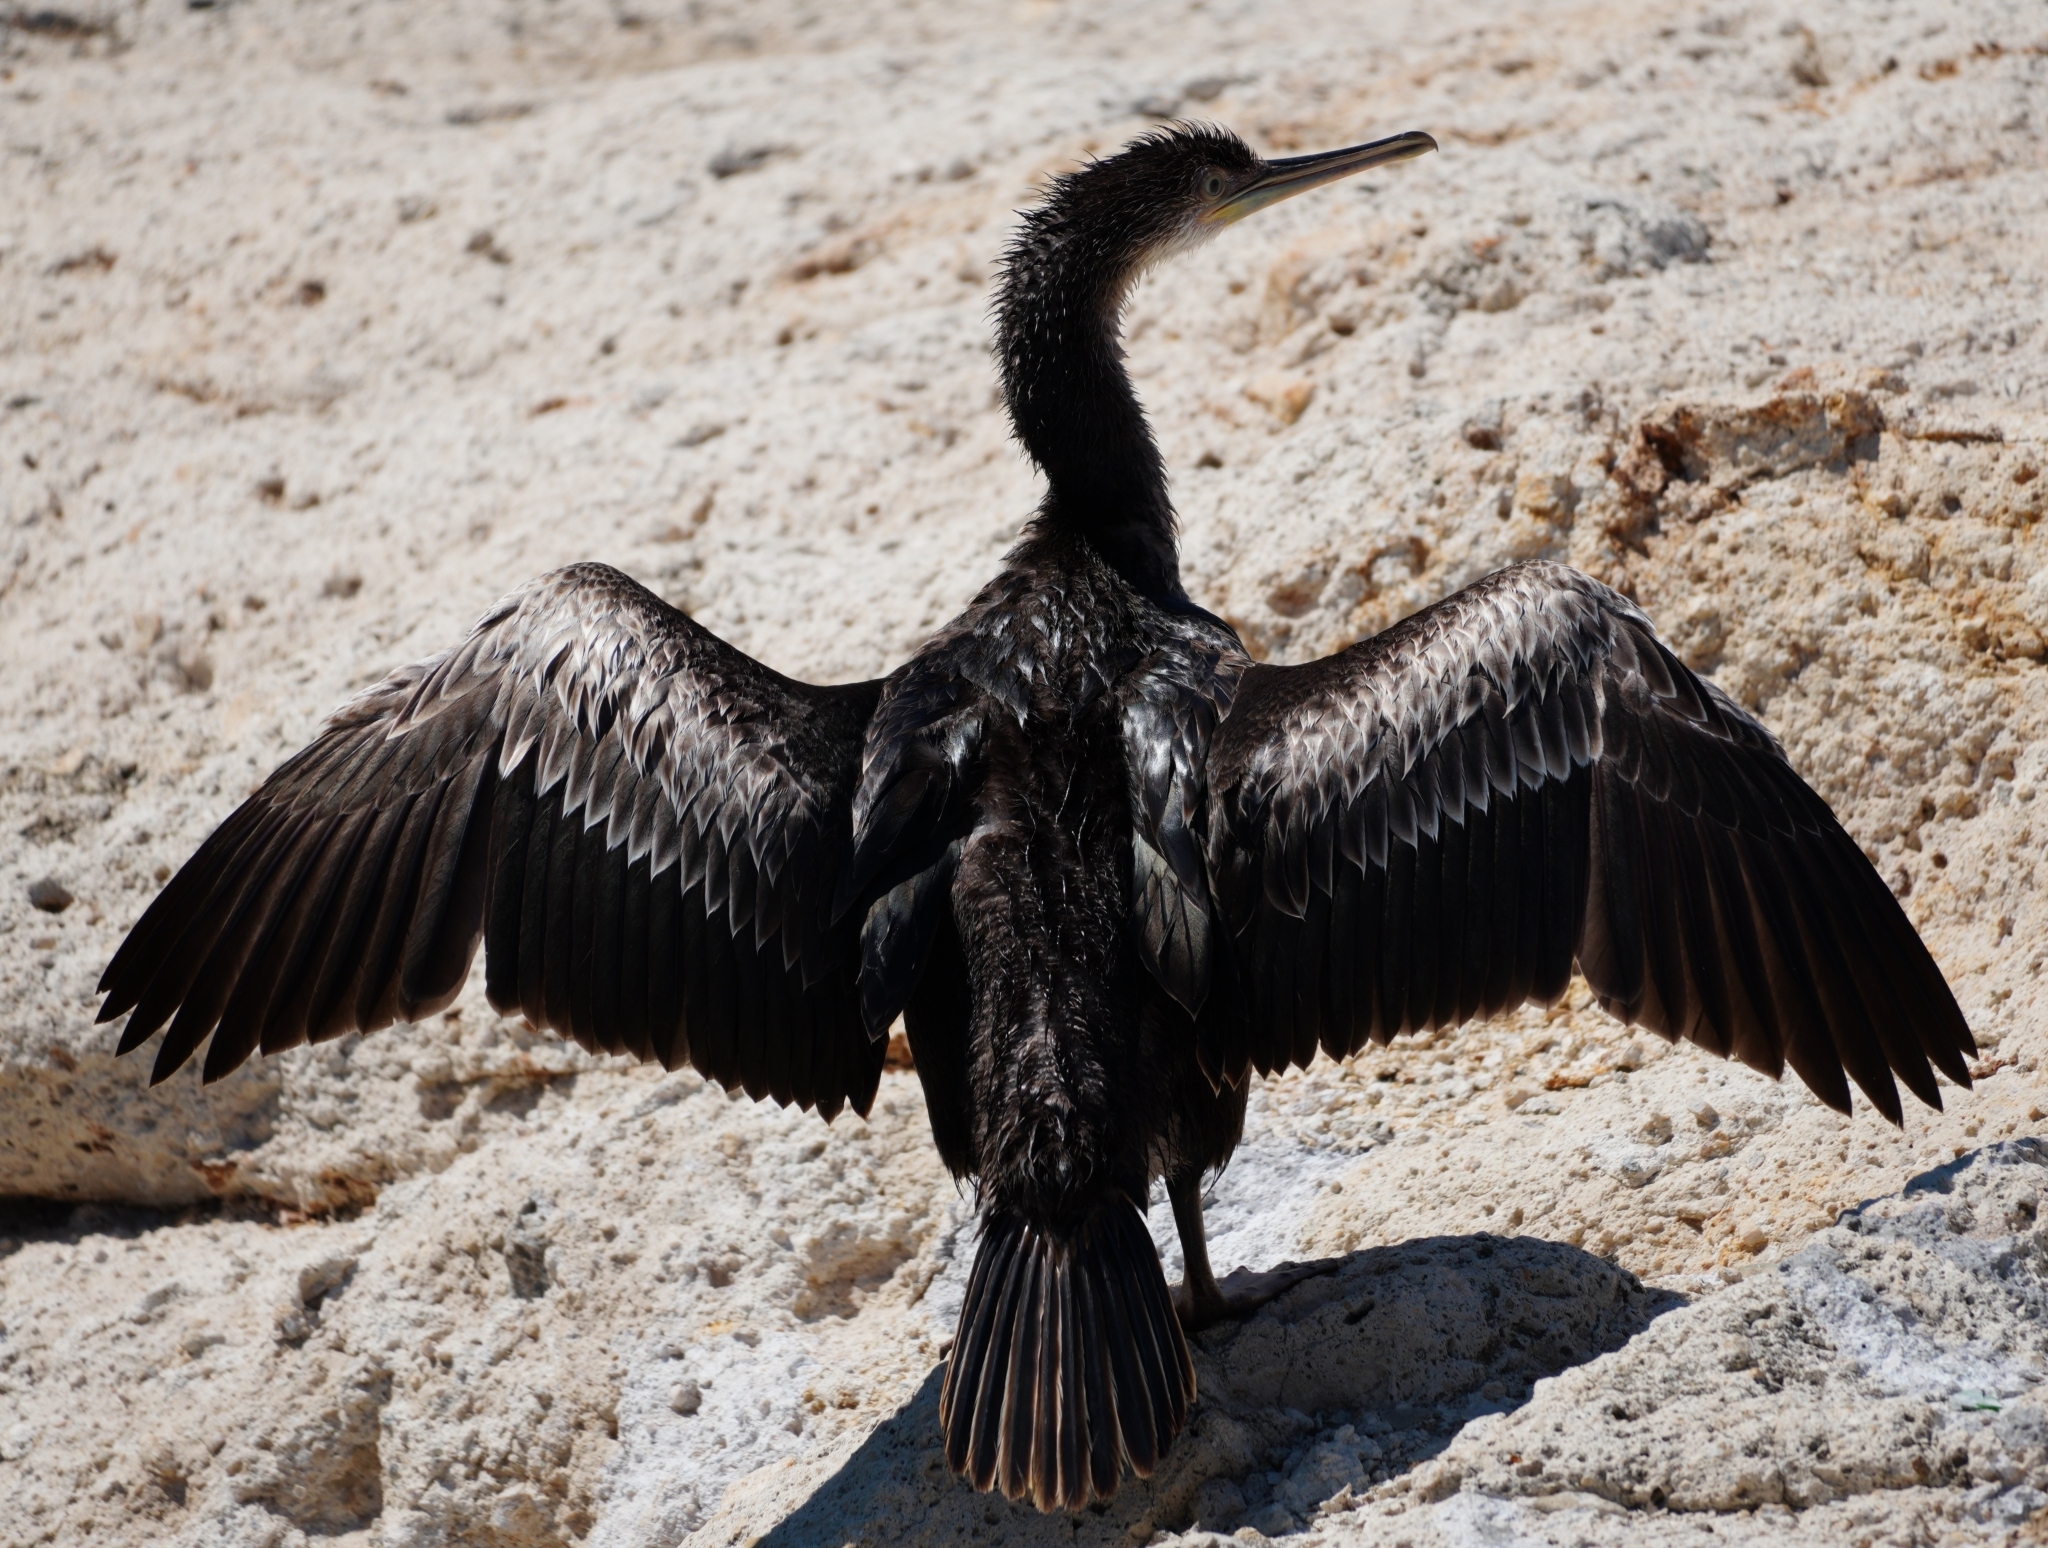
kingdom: Animalia
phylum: Chordata
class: Aves
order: Suliformes
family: Phalacrocoracidae
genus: Phalacrocorax
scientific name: Phalacrocorax aristotelis
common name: European shag
